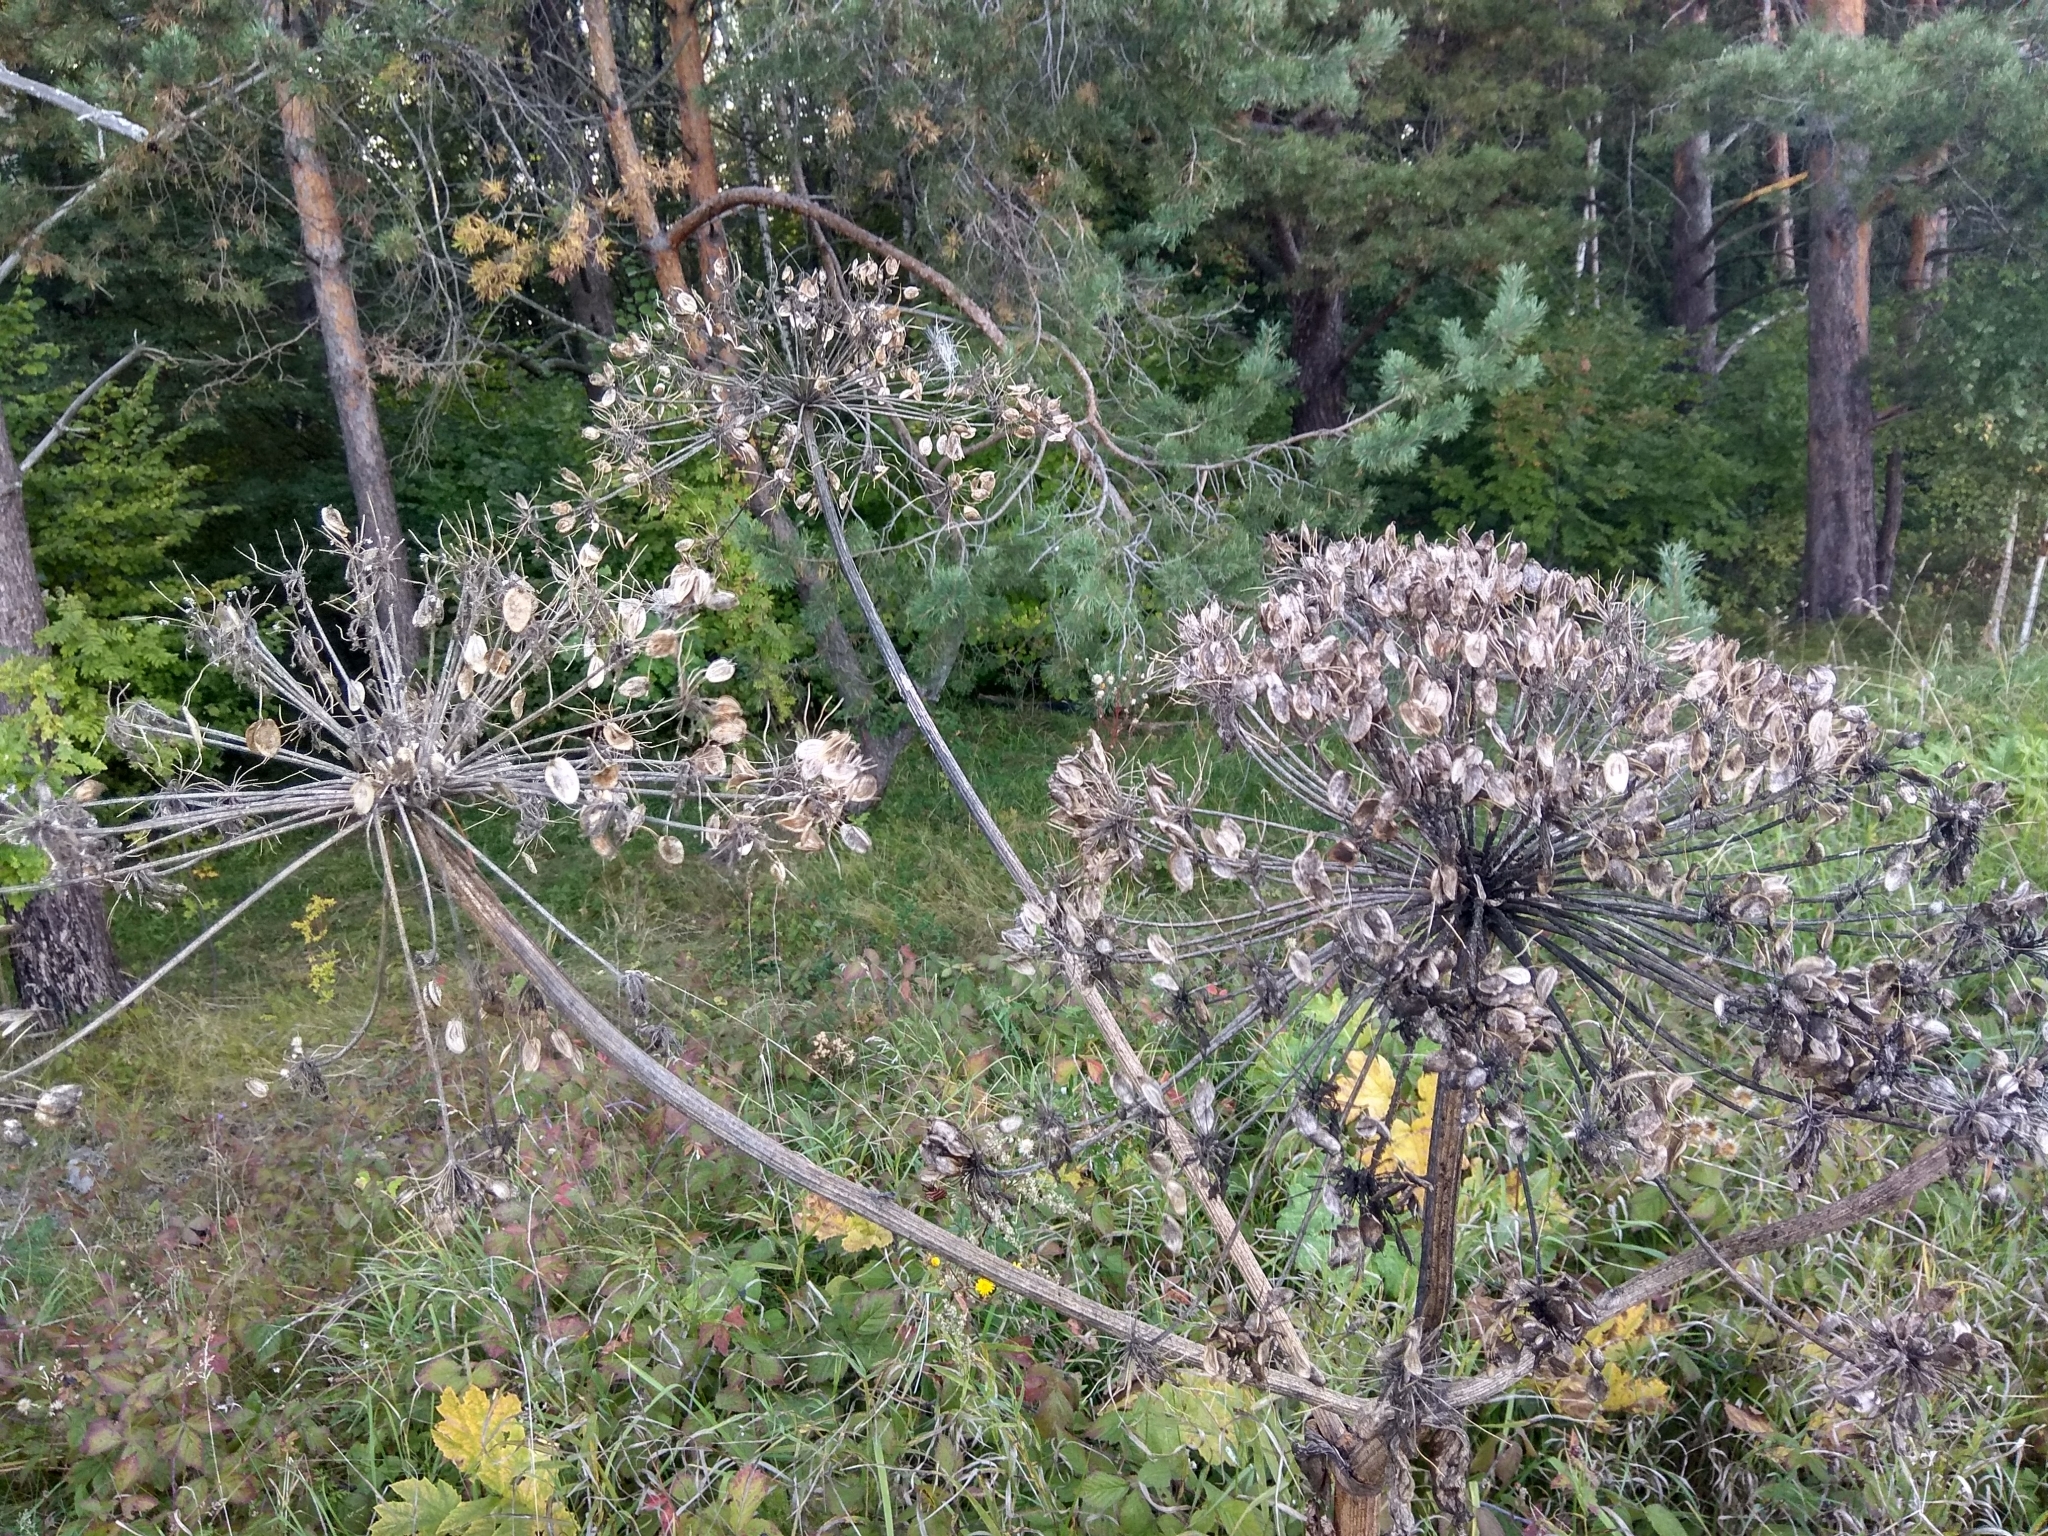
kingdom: Plantae
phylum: Tracheophyta
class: Magnoliopsida
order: Apiales
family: Apiaceae
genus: Heracleum
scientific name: Heracleum sosnowskyi
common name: Sosnowsky's hogweed
